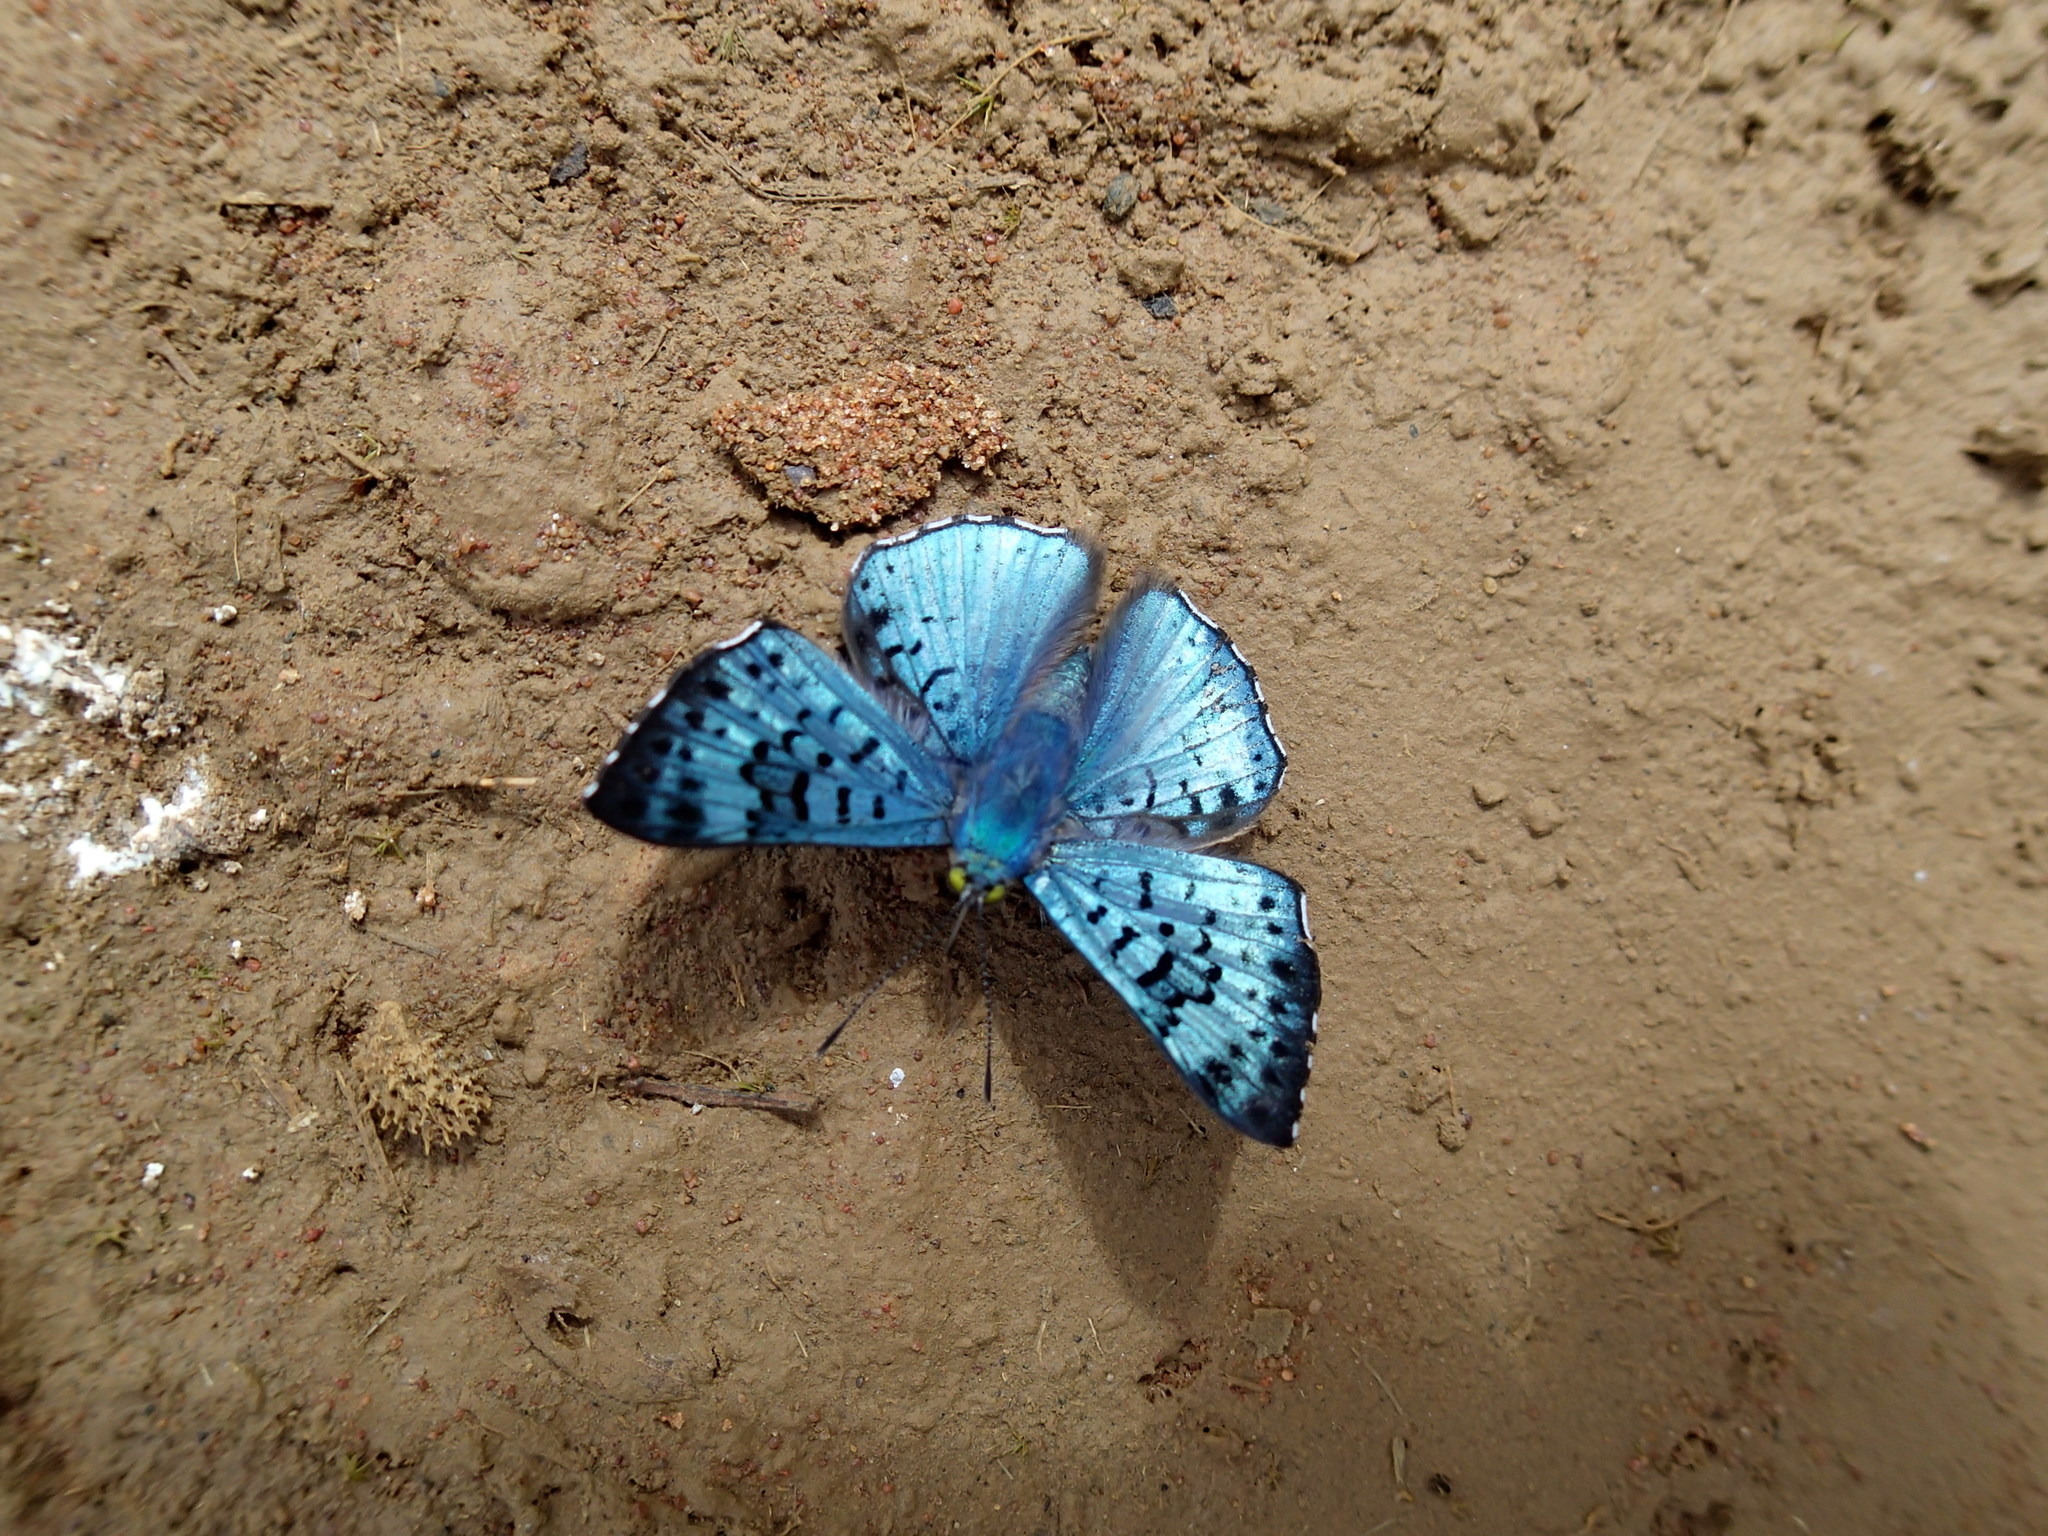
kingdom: Animalia
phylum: Arthropoda
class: Insecta
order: Lepidoptera
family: Riodinidae
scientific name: Riodinidae
